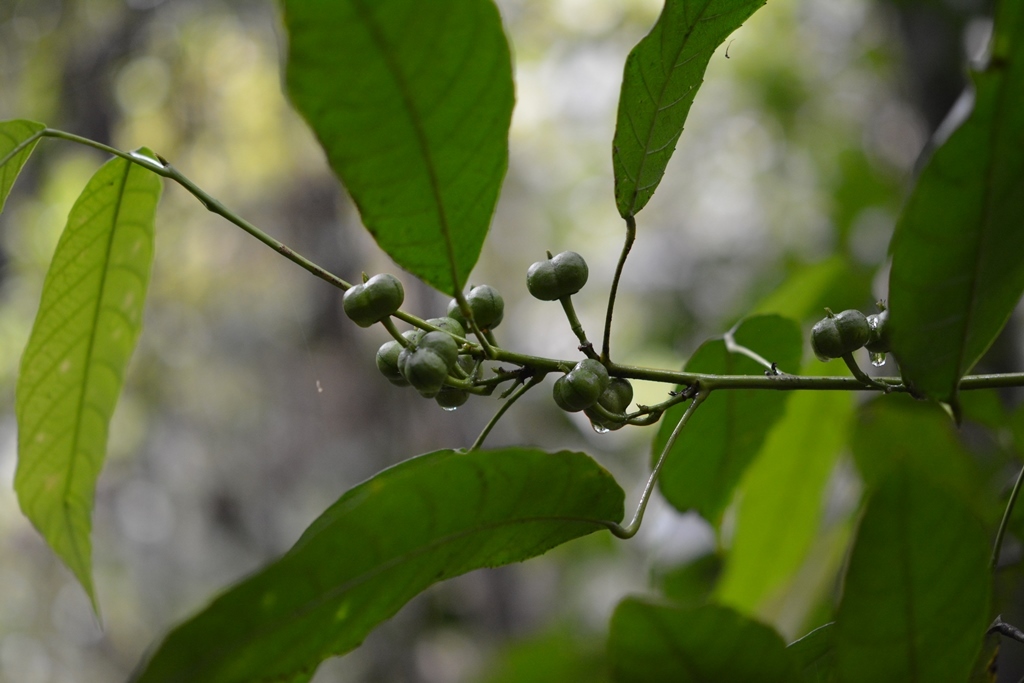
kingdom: Plantae
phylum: Tracheophyta
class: Magnoliopsida
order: Malpighiales
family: Euphorbiaceae
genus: Cleidion
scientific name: Cleidion castaneifolium
